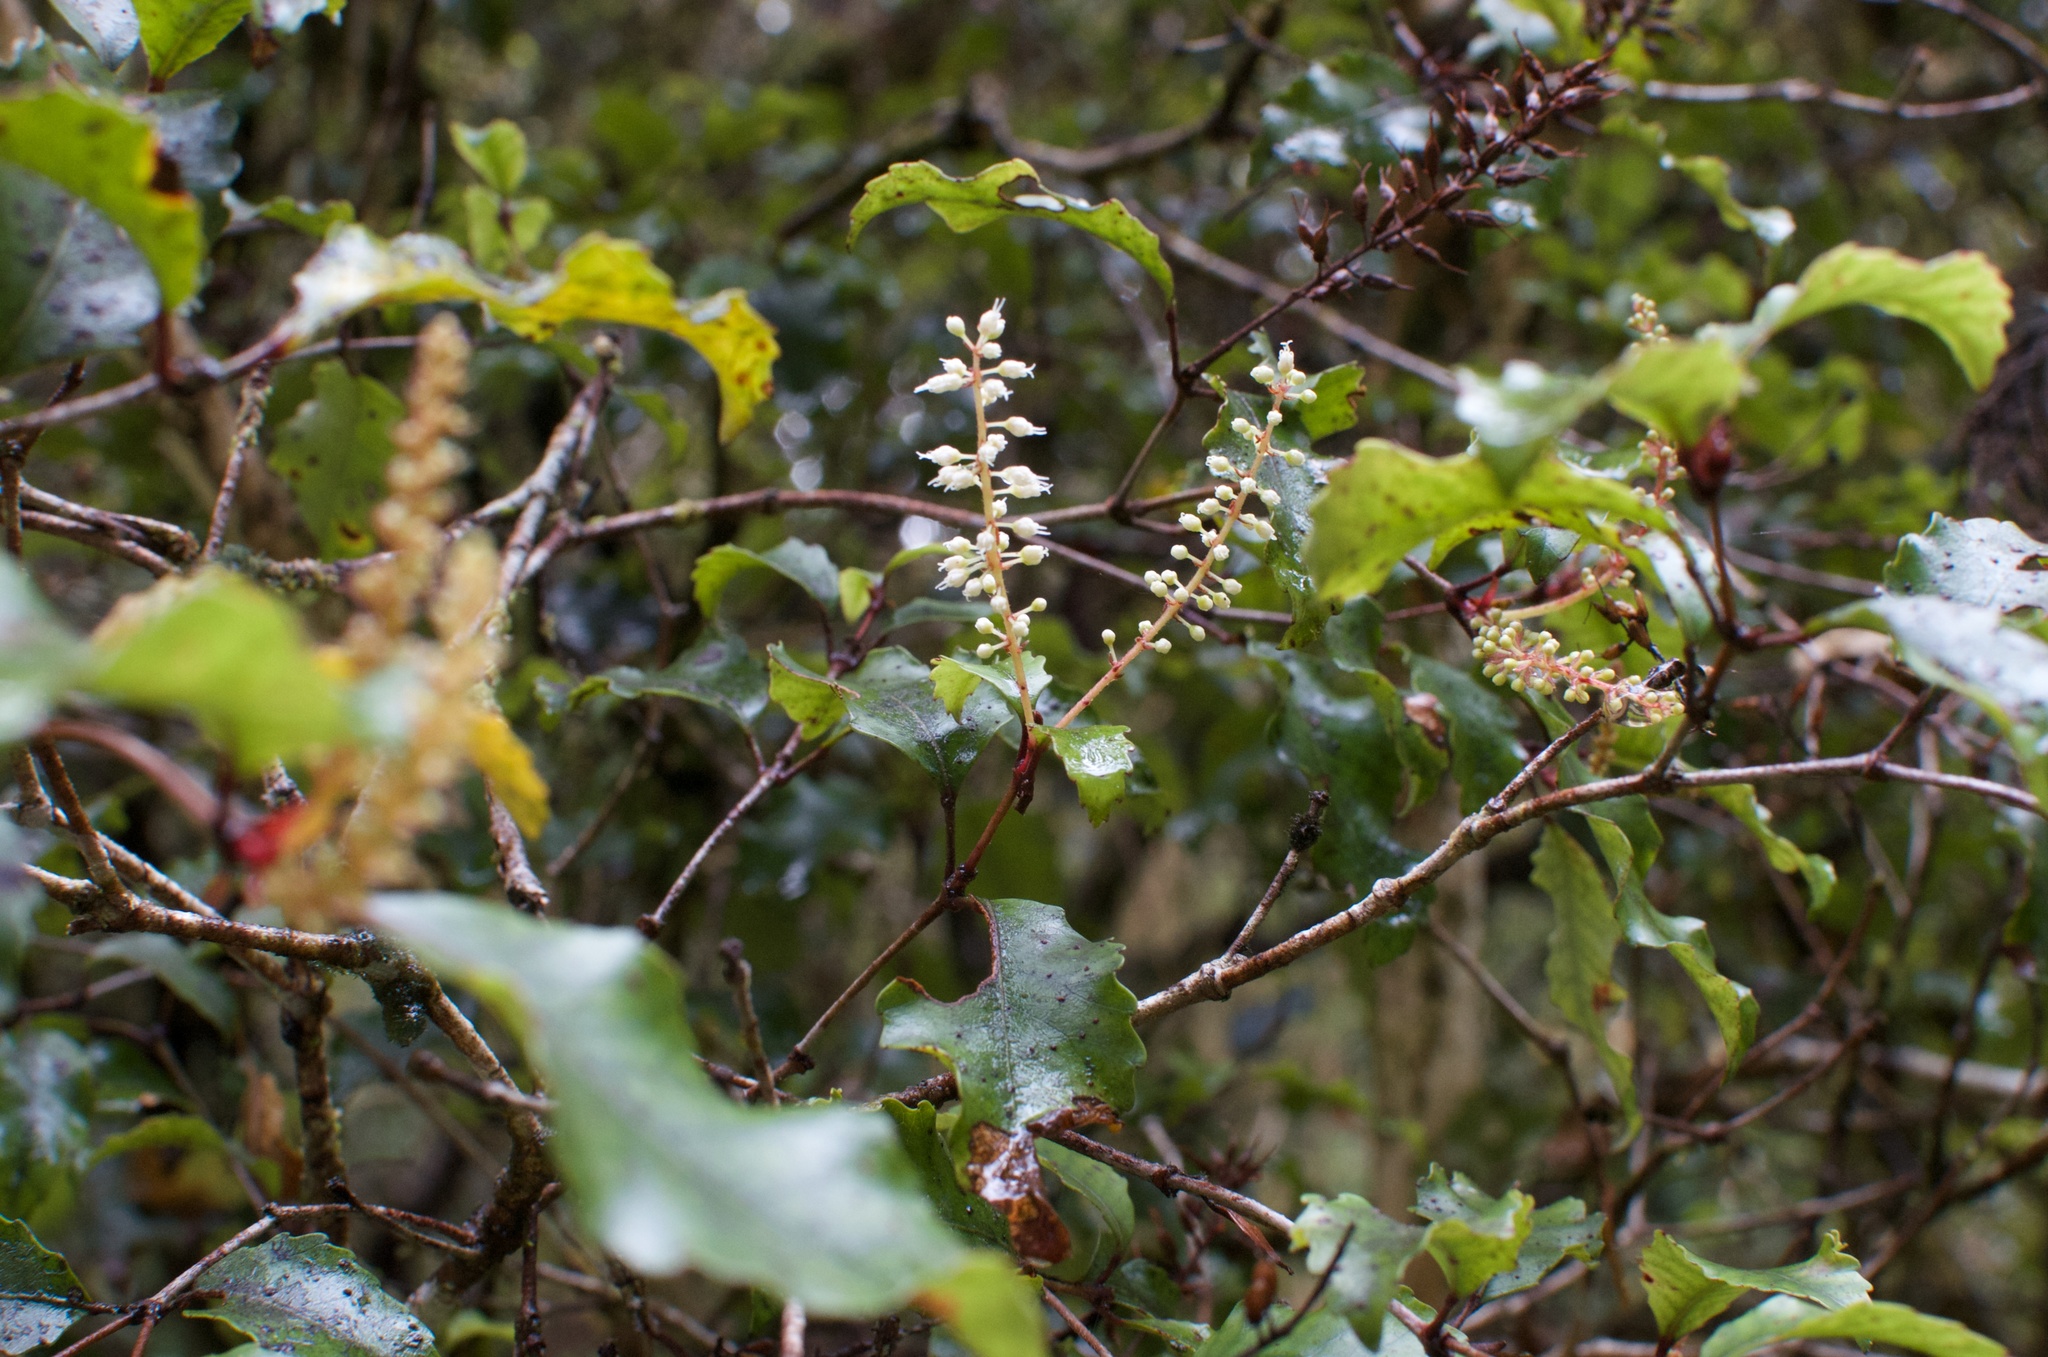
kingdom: Plantae
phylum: Tracheophyta
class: Magnoliopsida
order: Oxalidales
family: Cunoniaceae
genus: Pterophylla
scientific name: Pterophylla racemosa
